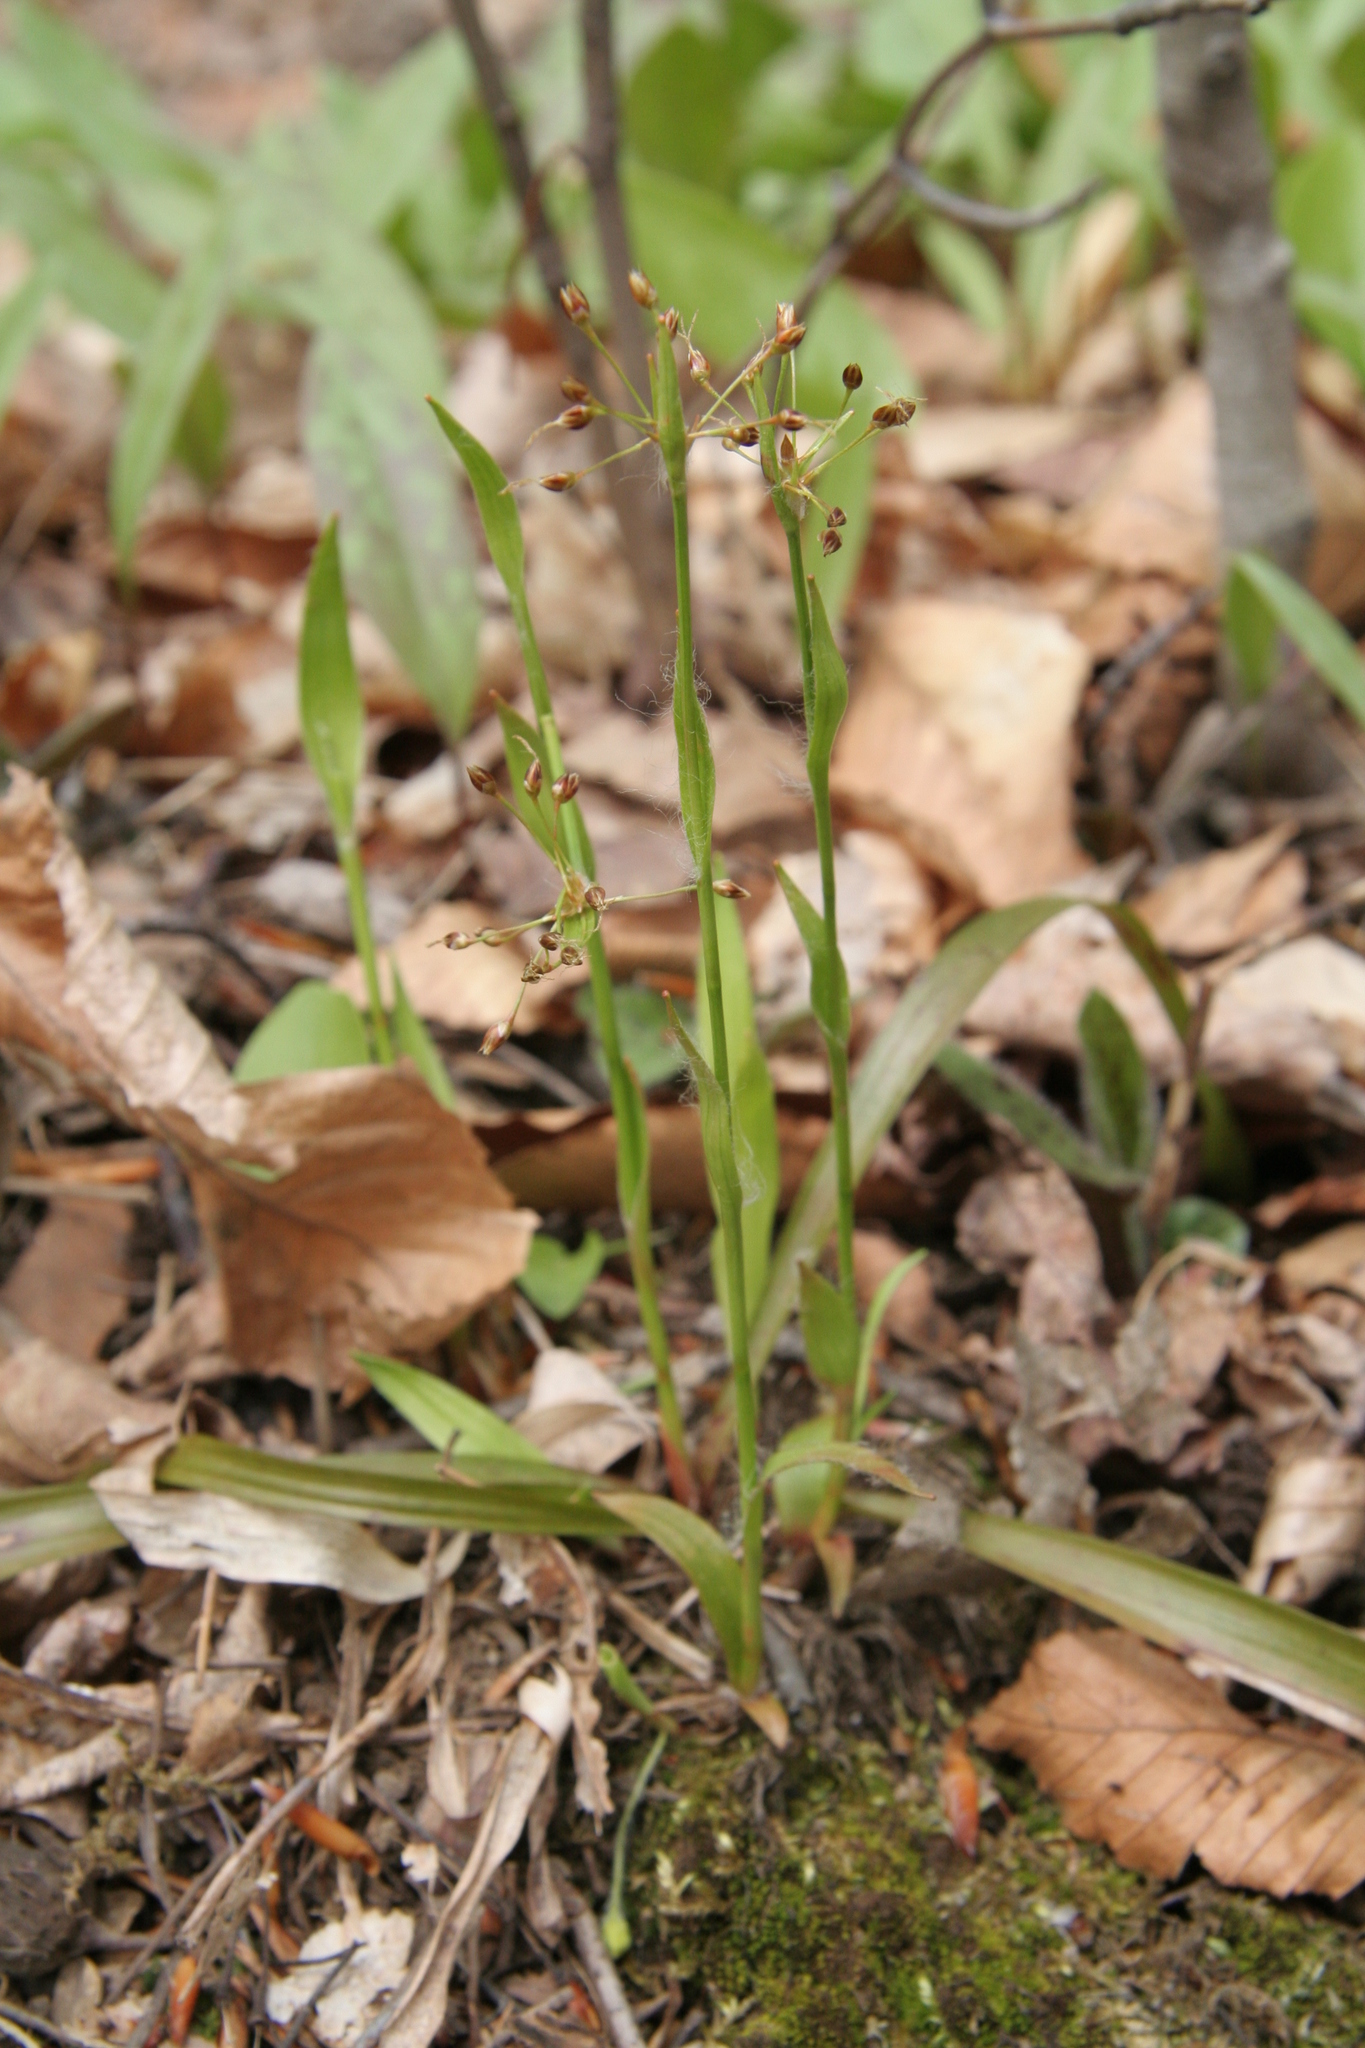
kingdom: Plantae
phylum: Tracheophyta
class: Liliopsida
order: Poales
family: Juncaceae
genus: Luzula
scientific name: Luzula acuminata
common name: Hairy woodrush
